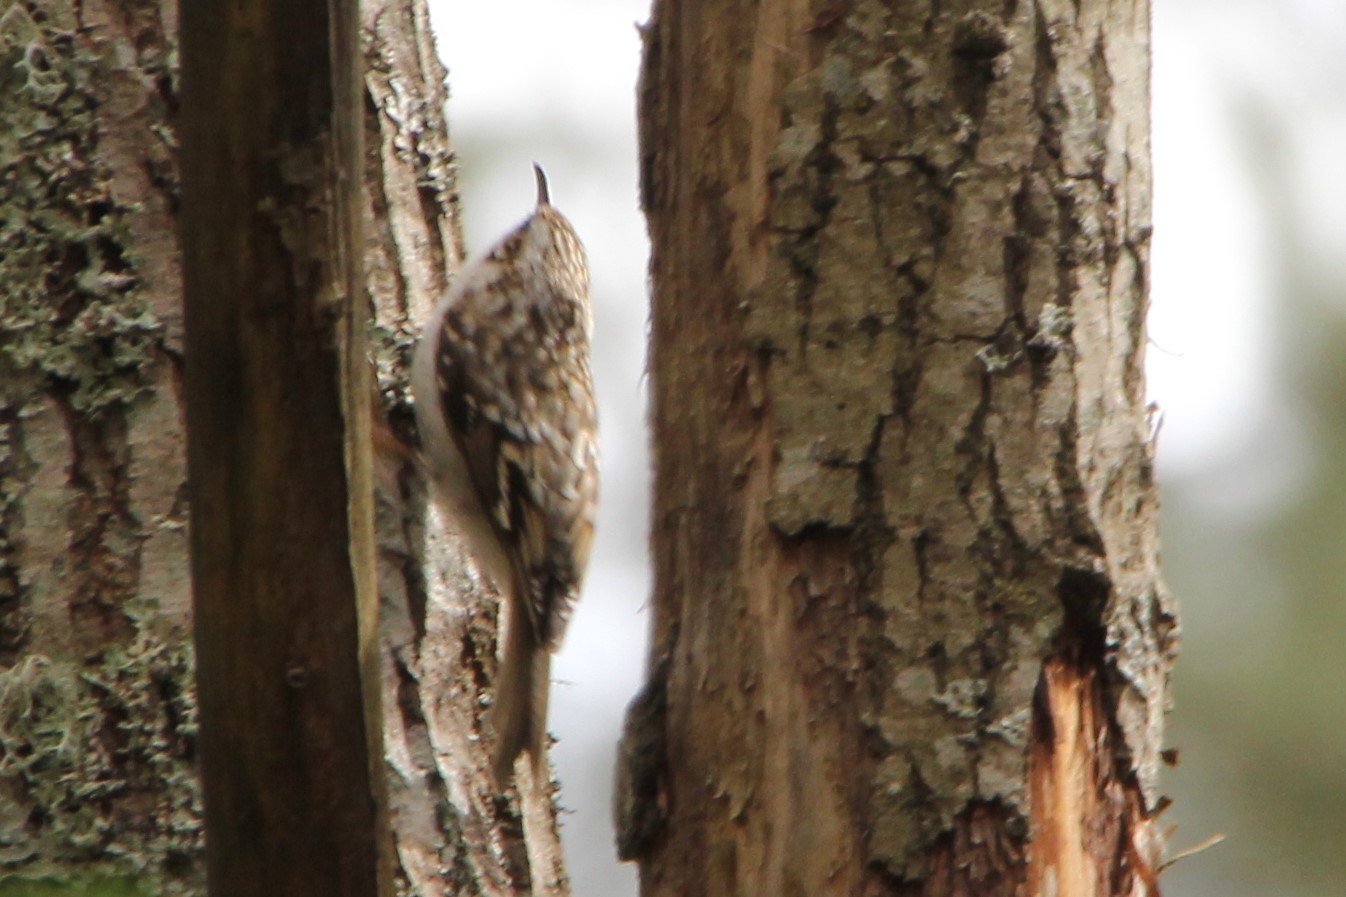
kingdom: Animalia
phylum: Chordata
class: Aves
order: Passeriformes
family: Certhiidae
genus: Certhia
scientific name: Certhia familiaris
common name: Eurasian treecreeper
